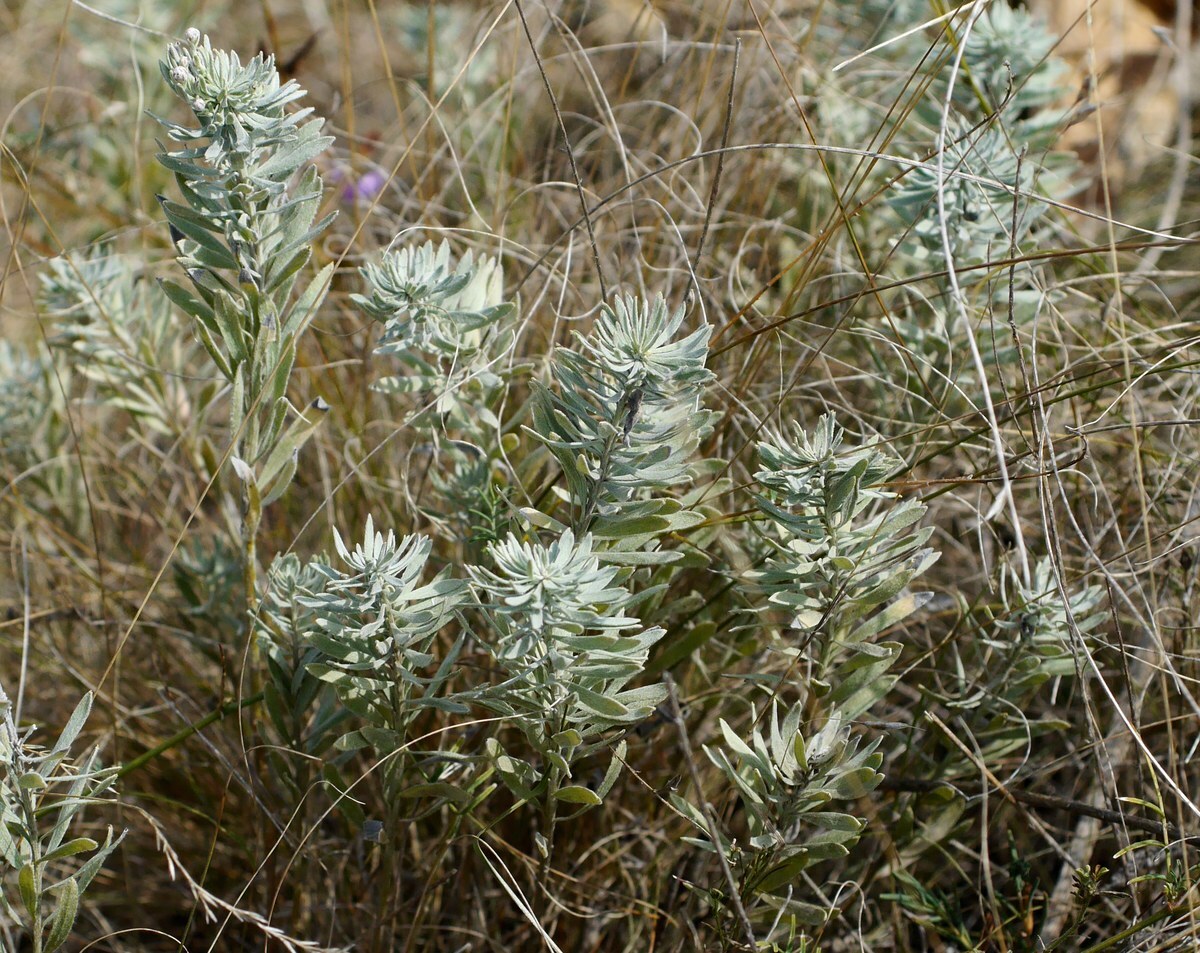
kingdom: Plantae
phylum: Tracheophyta
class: Magnoliopsida
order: Asterales
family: Asteraceae
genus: Galatella
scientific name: Galatella villosa
